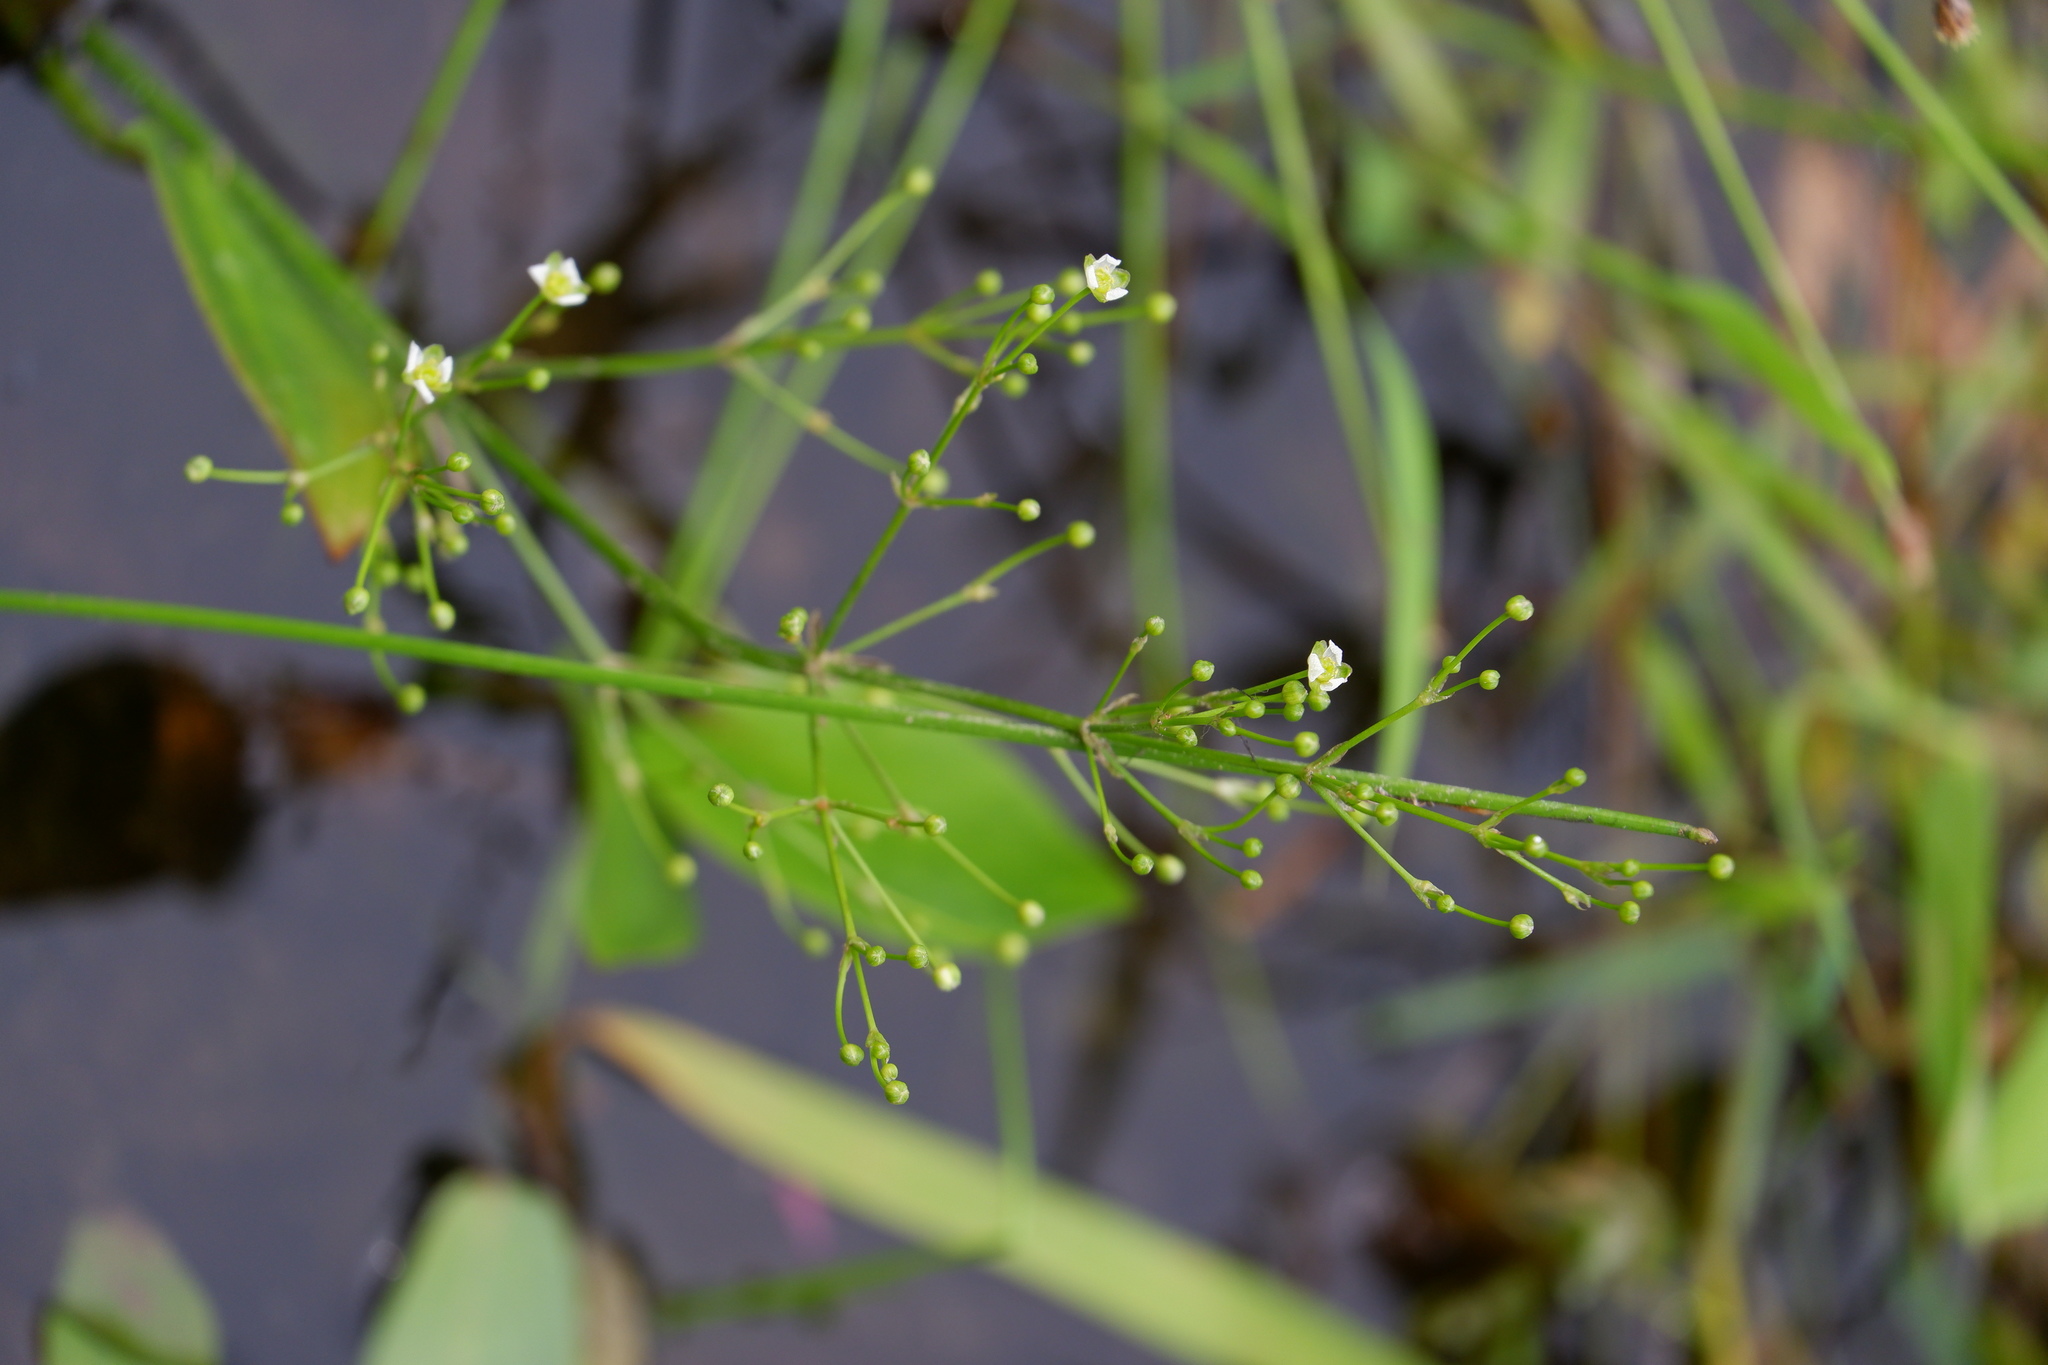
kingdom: Plantae
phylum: Tracheophyta
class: Liliopsida
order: Alismatales
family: Alismataceae
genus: Alisma
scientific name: Alisma subcordatum
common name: Southern water-plantain
